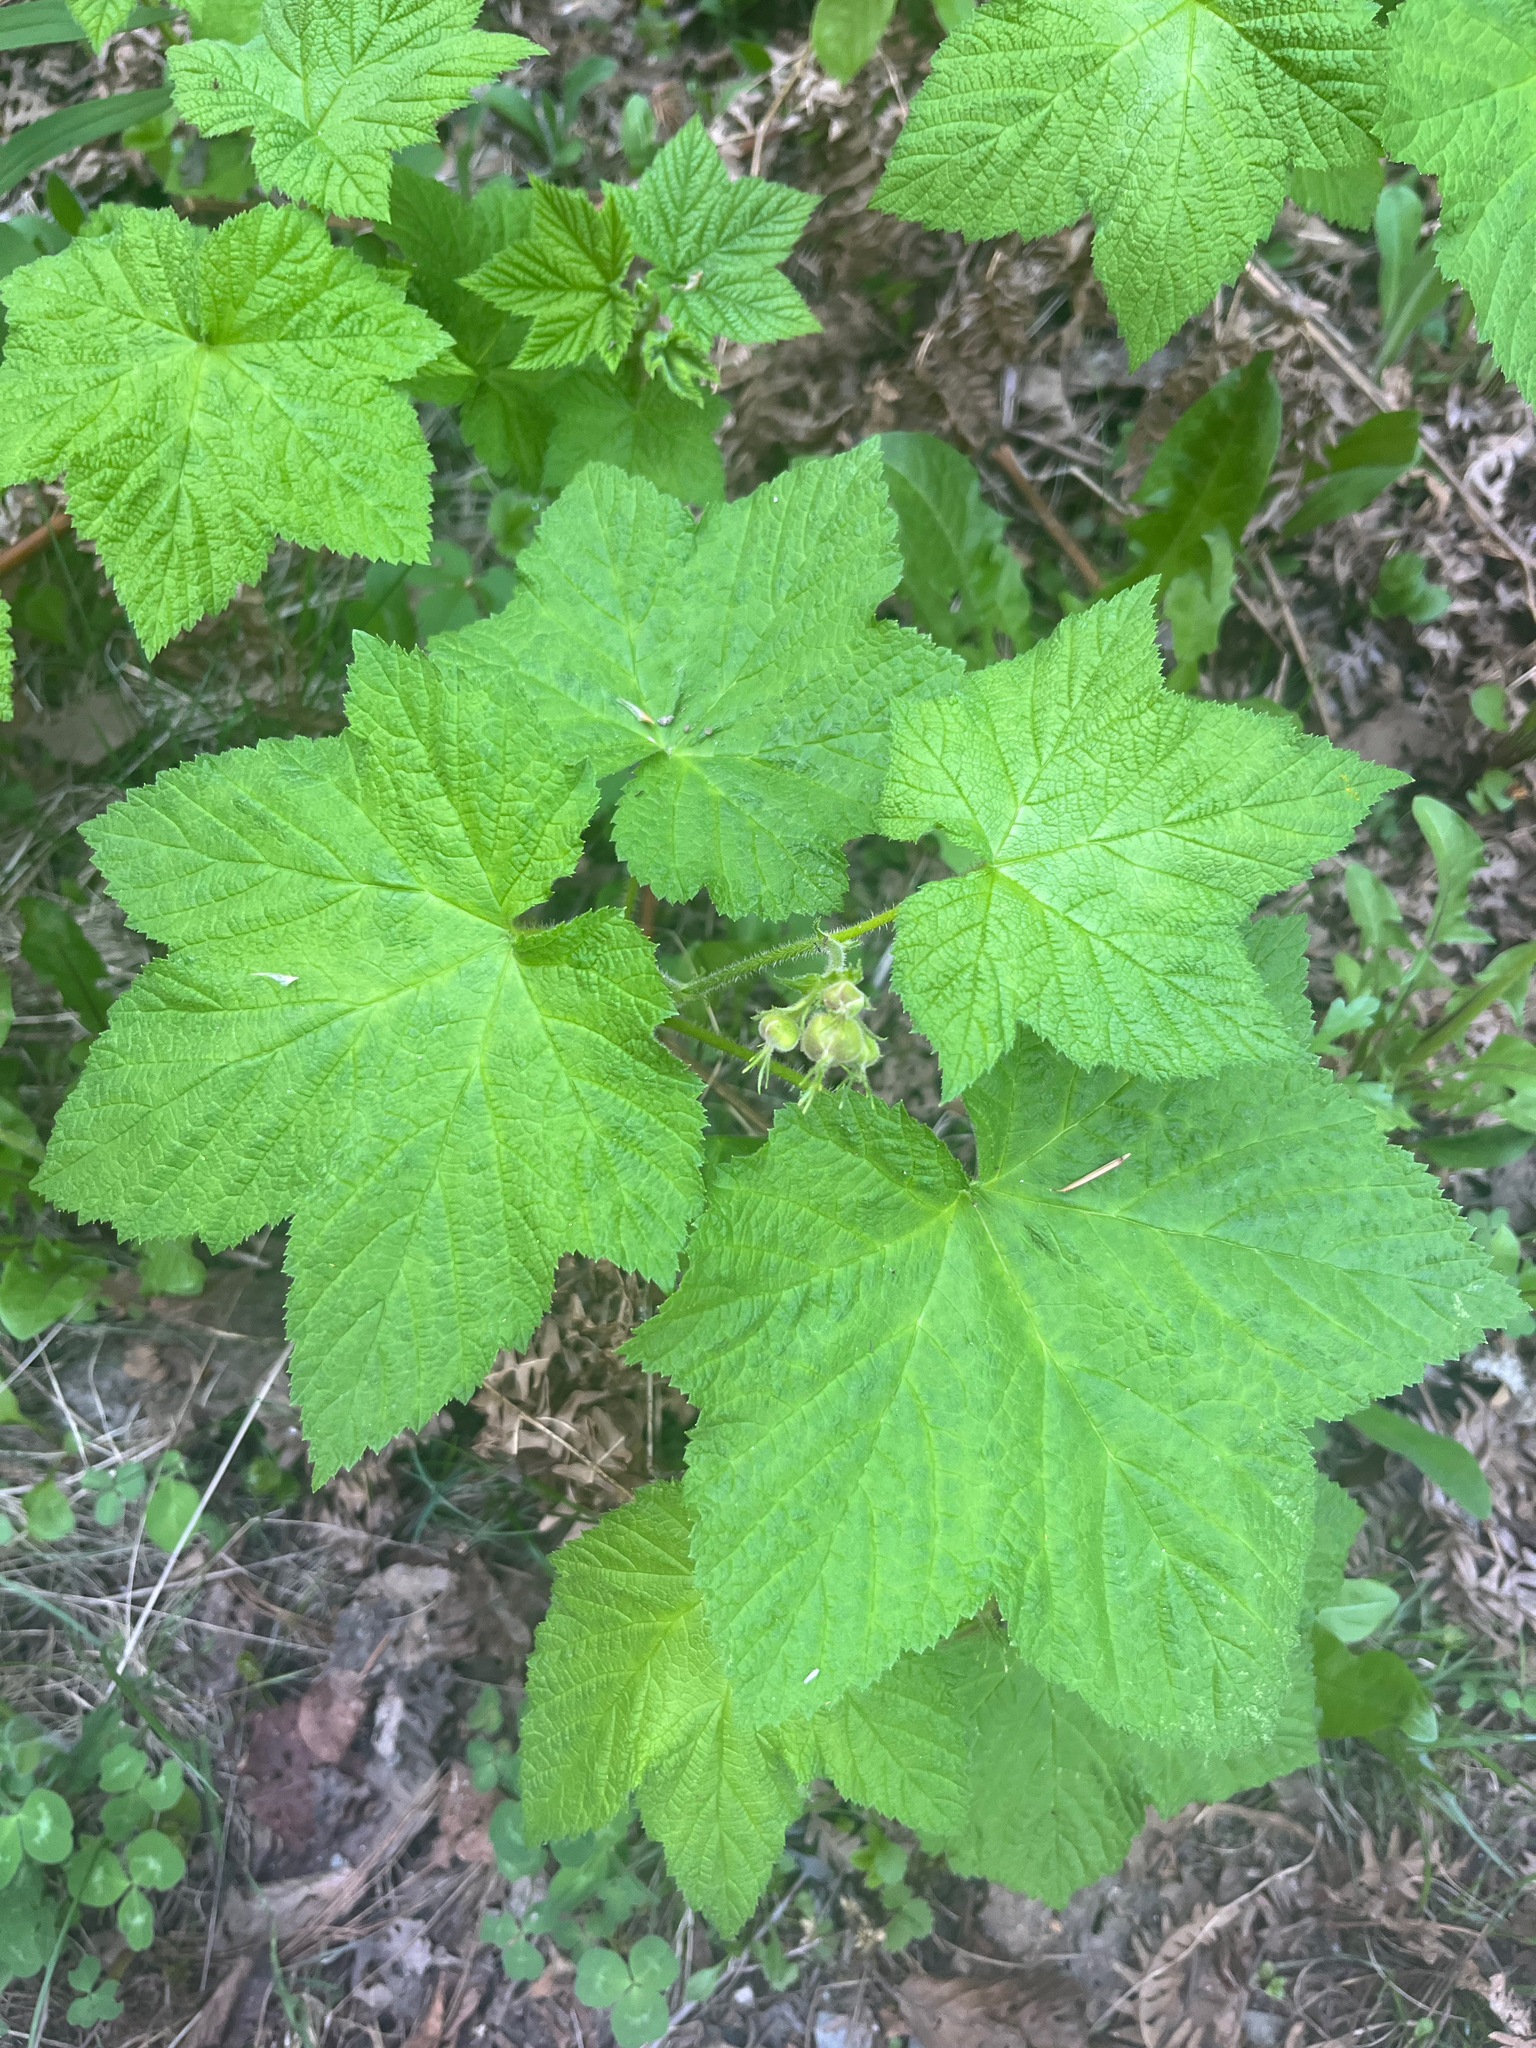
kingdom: Plantae
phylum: Tracheophyta
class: Magnoliopsida
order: Rosales
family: Rosaceae
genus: Rubus
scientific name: Rubus parviflorus
